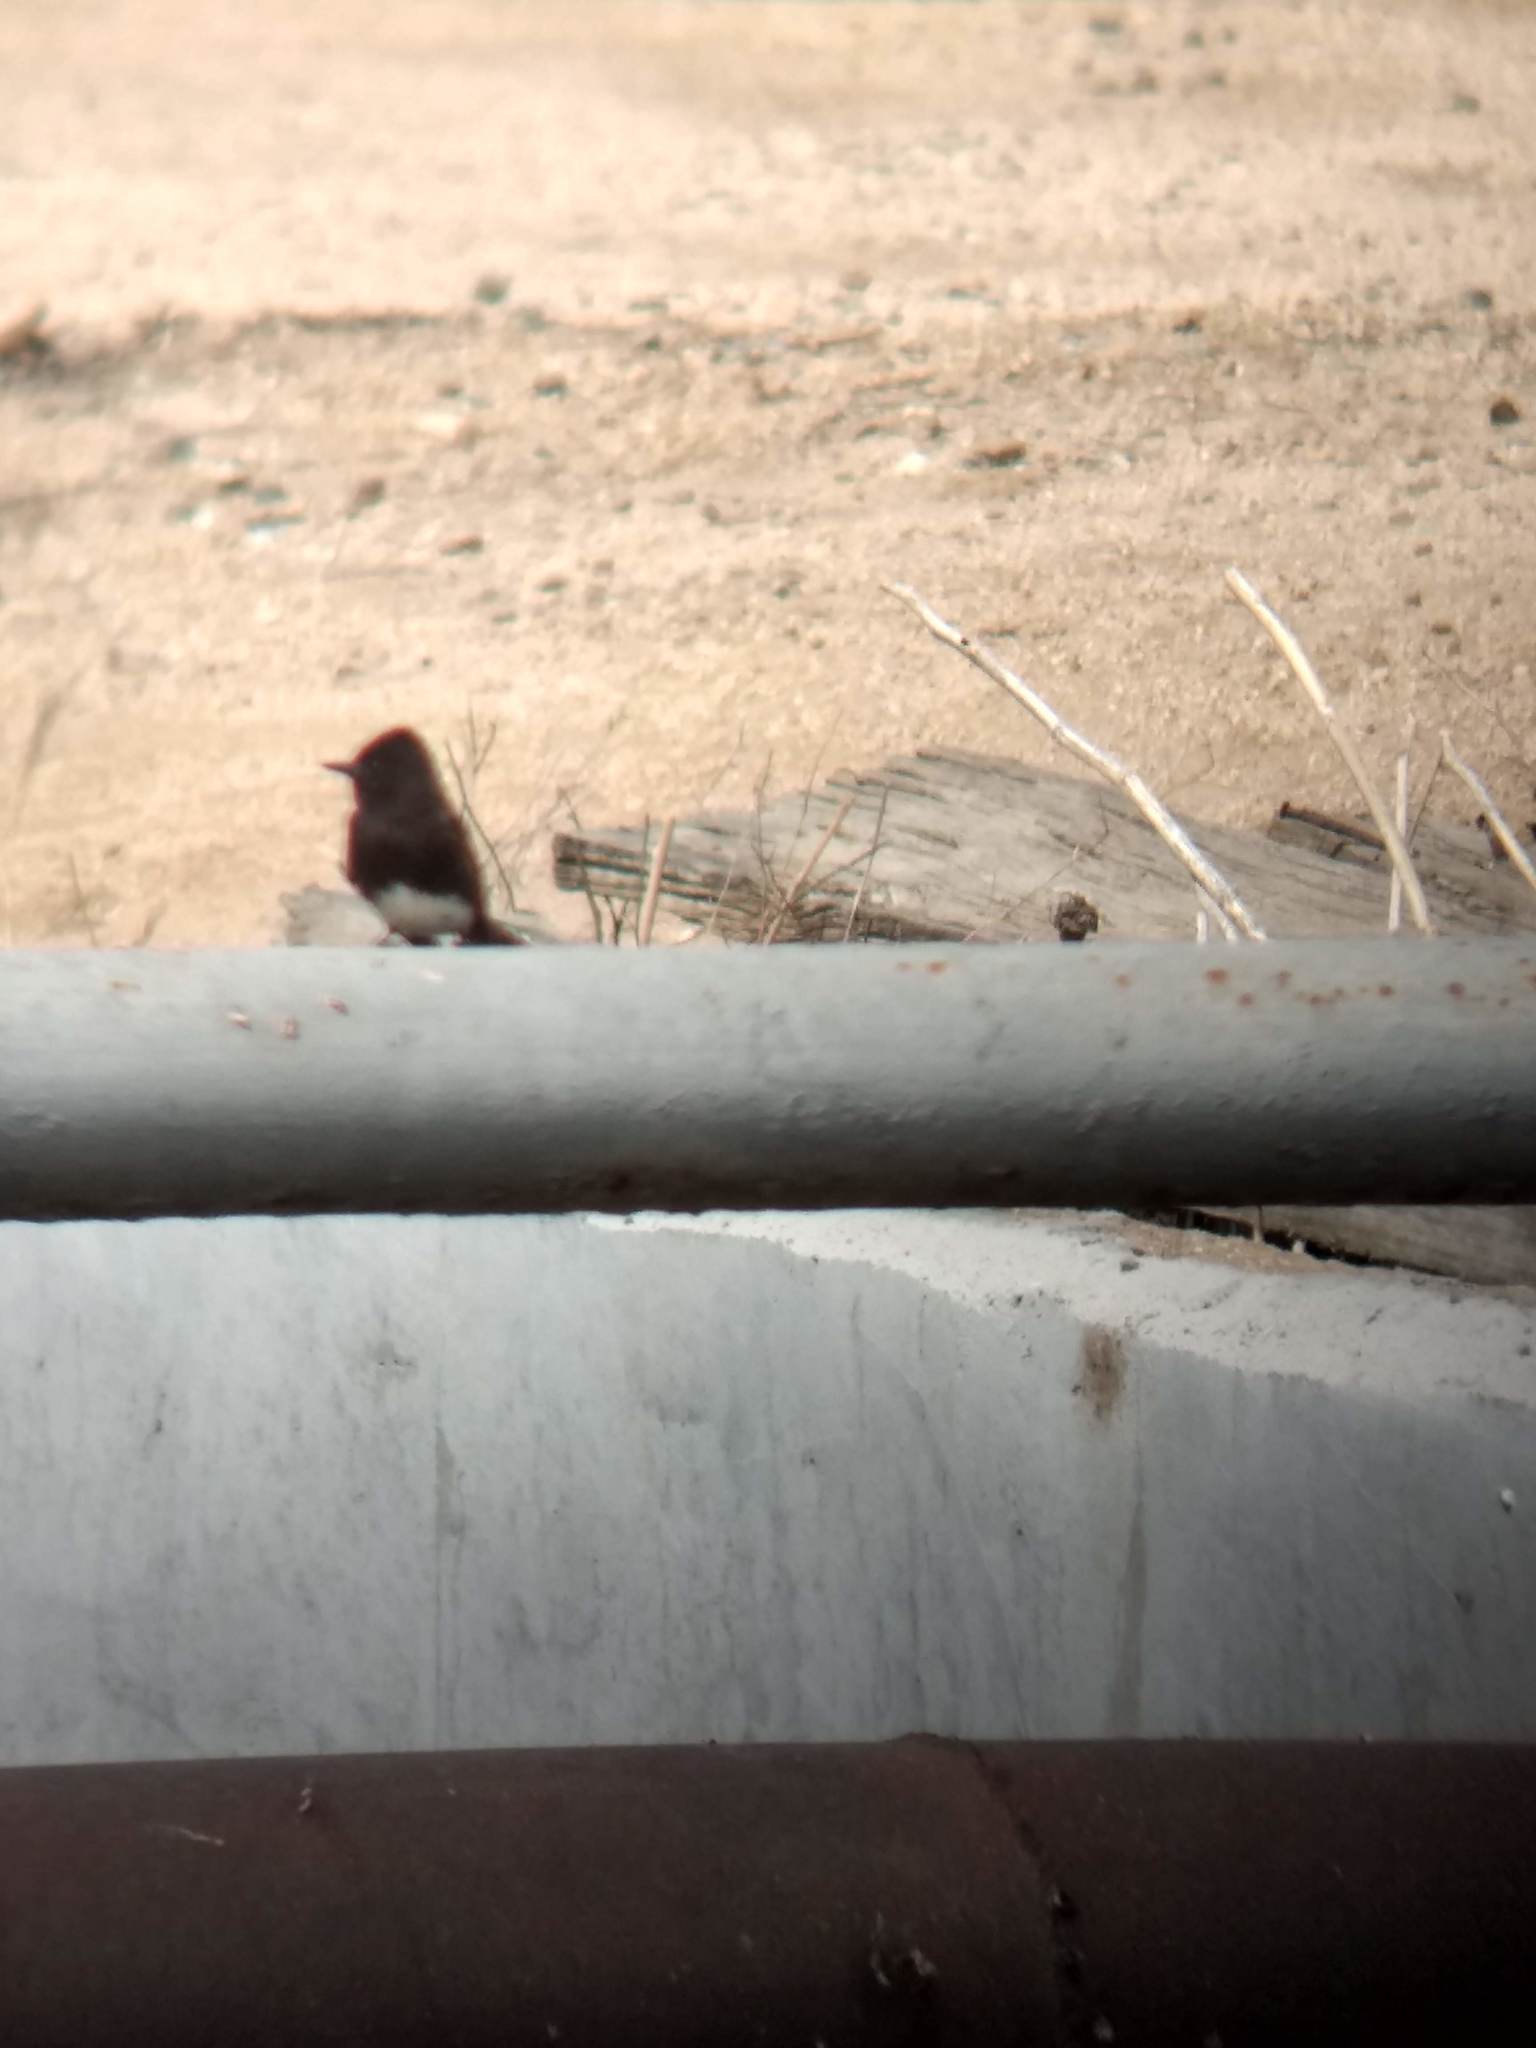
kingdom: Animalia
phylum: Chordata
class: Aves
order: Passeriformes
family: Tyrannidae
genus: Sayornis
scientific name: Sayornis nigricans
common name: Black phoebe
